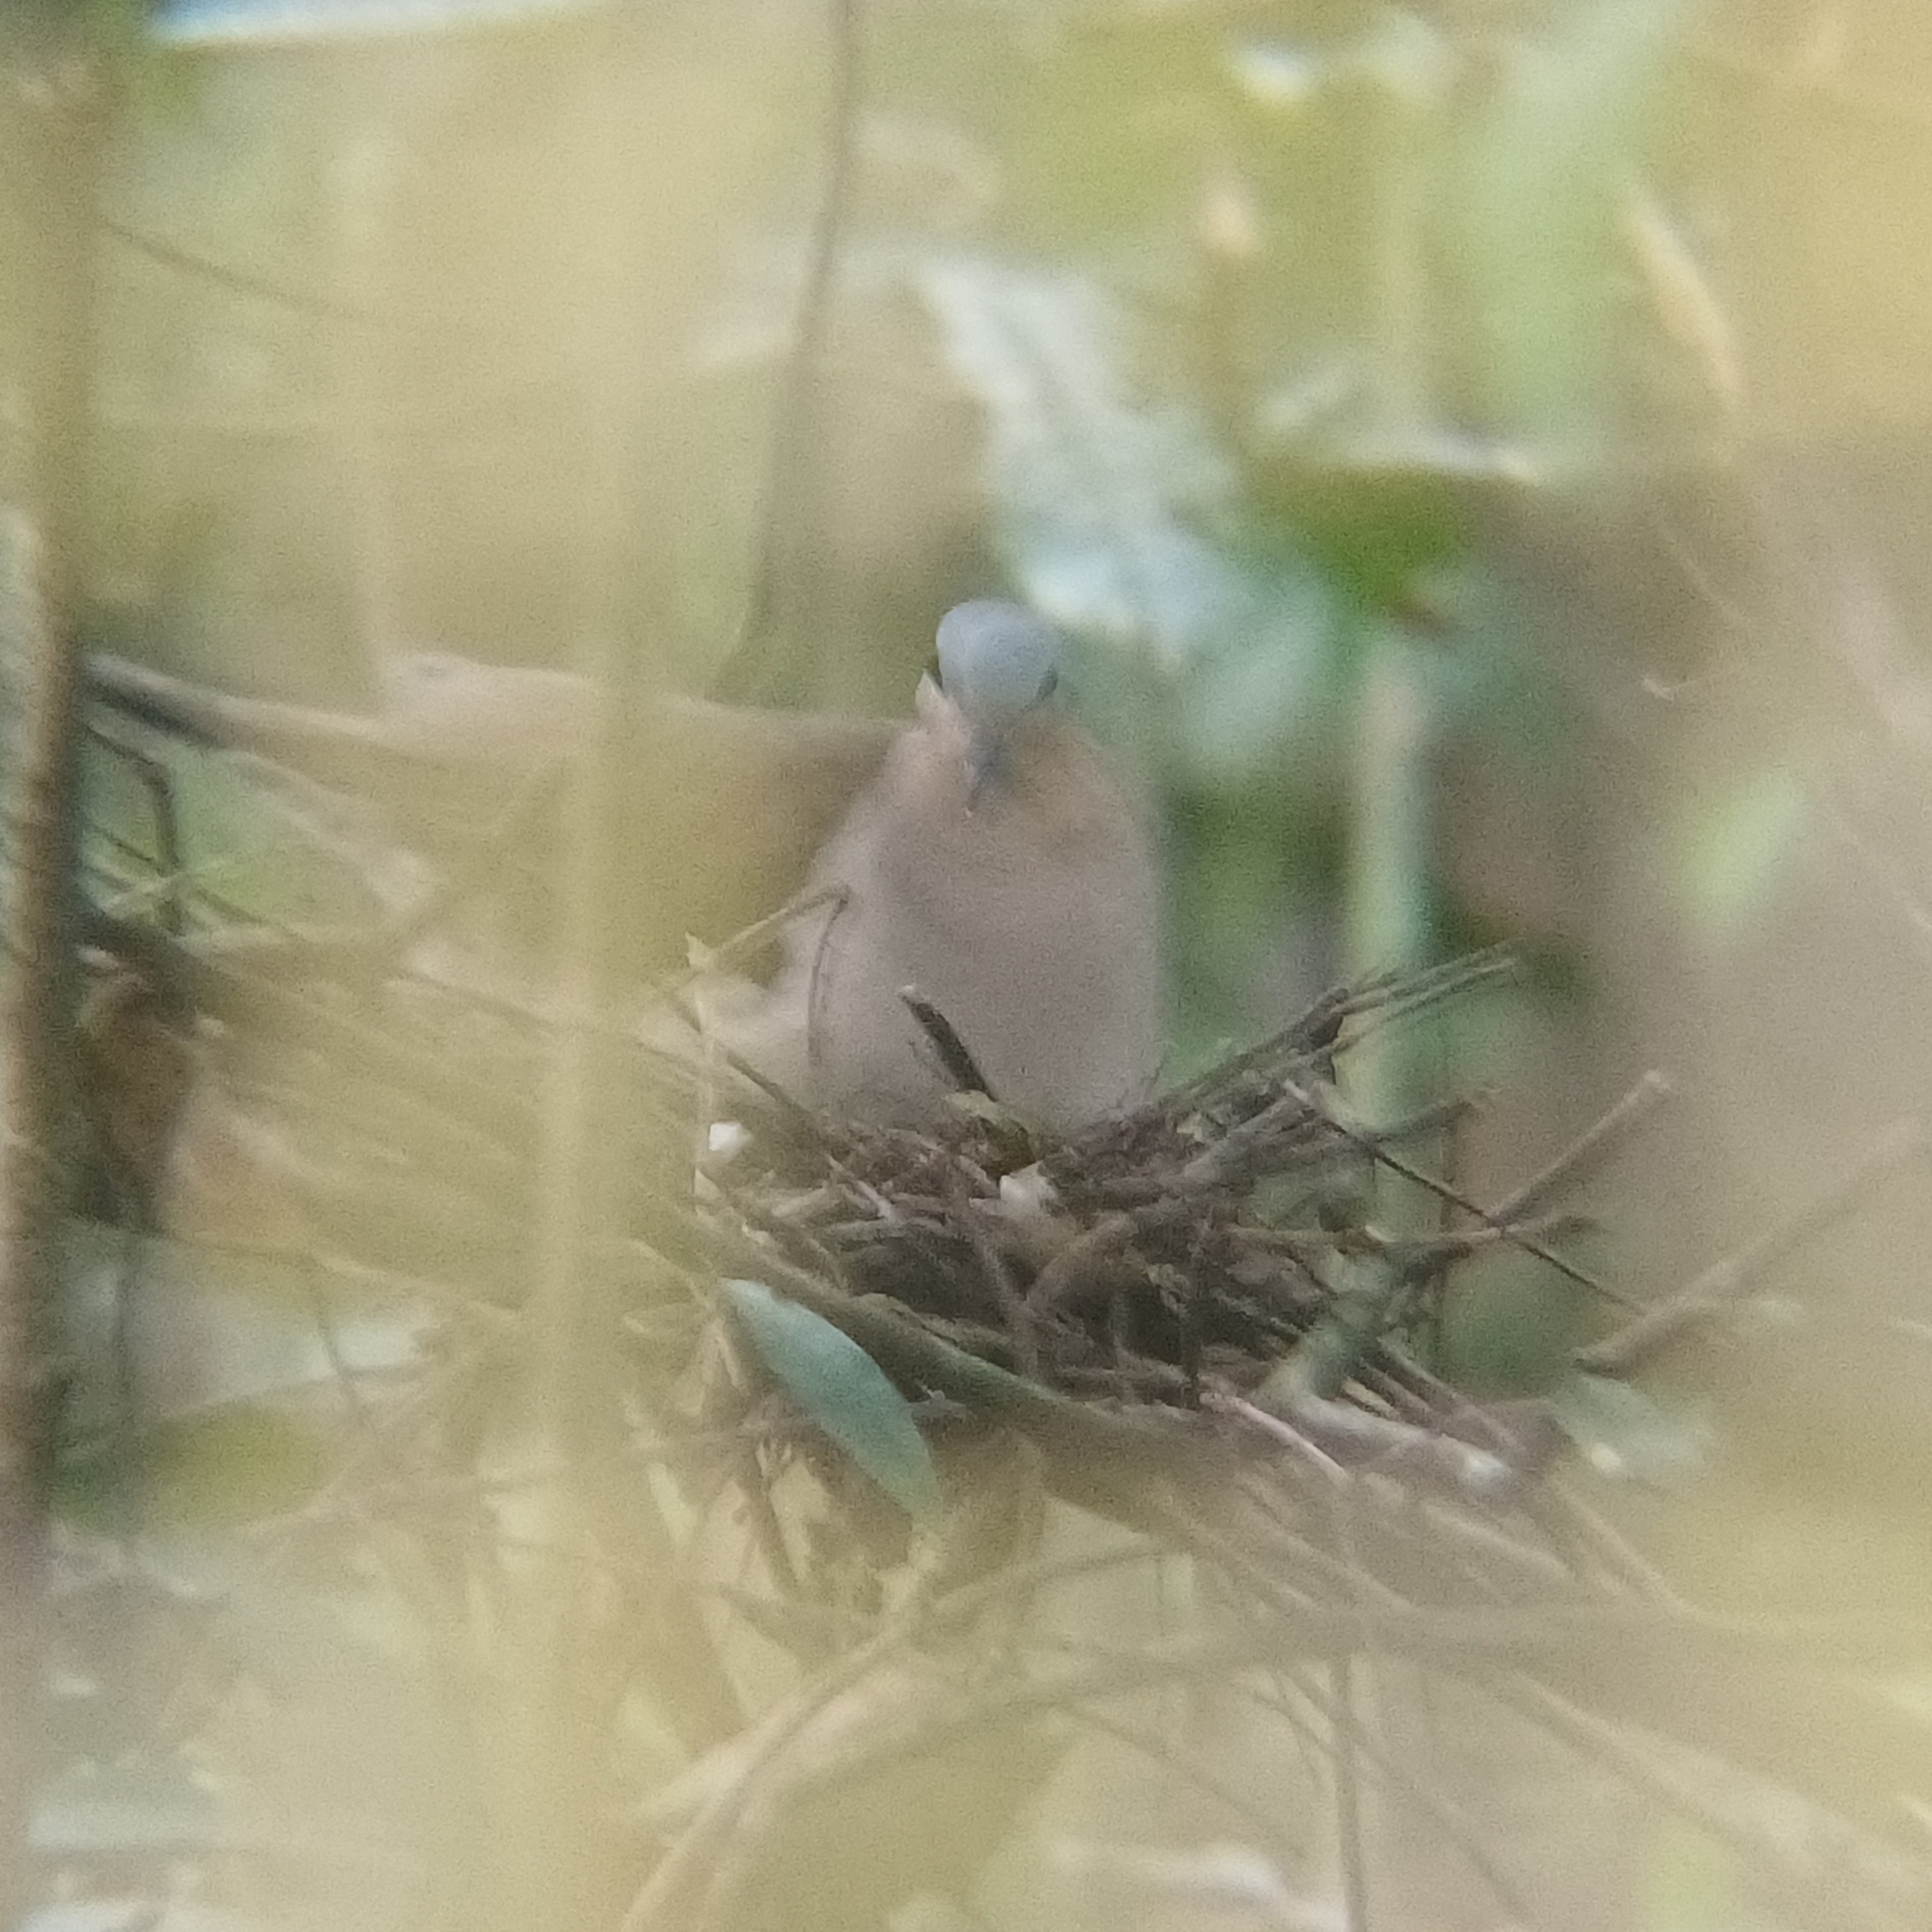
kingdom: Animalia
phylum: Chordata
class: Aves
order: Columbiformes
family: Columbidae
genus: Leptotila
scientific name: Leptotila rufaxilla
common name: Grey-fronted dove
